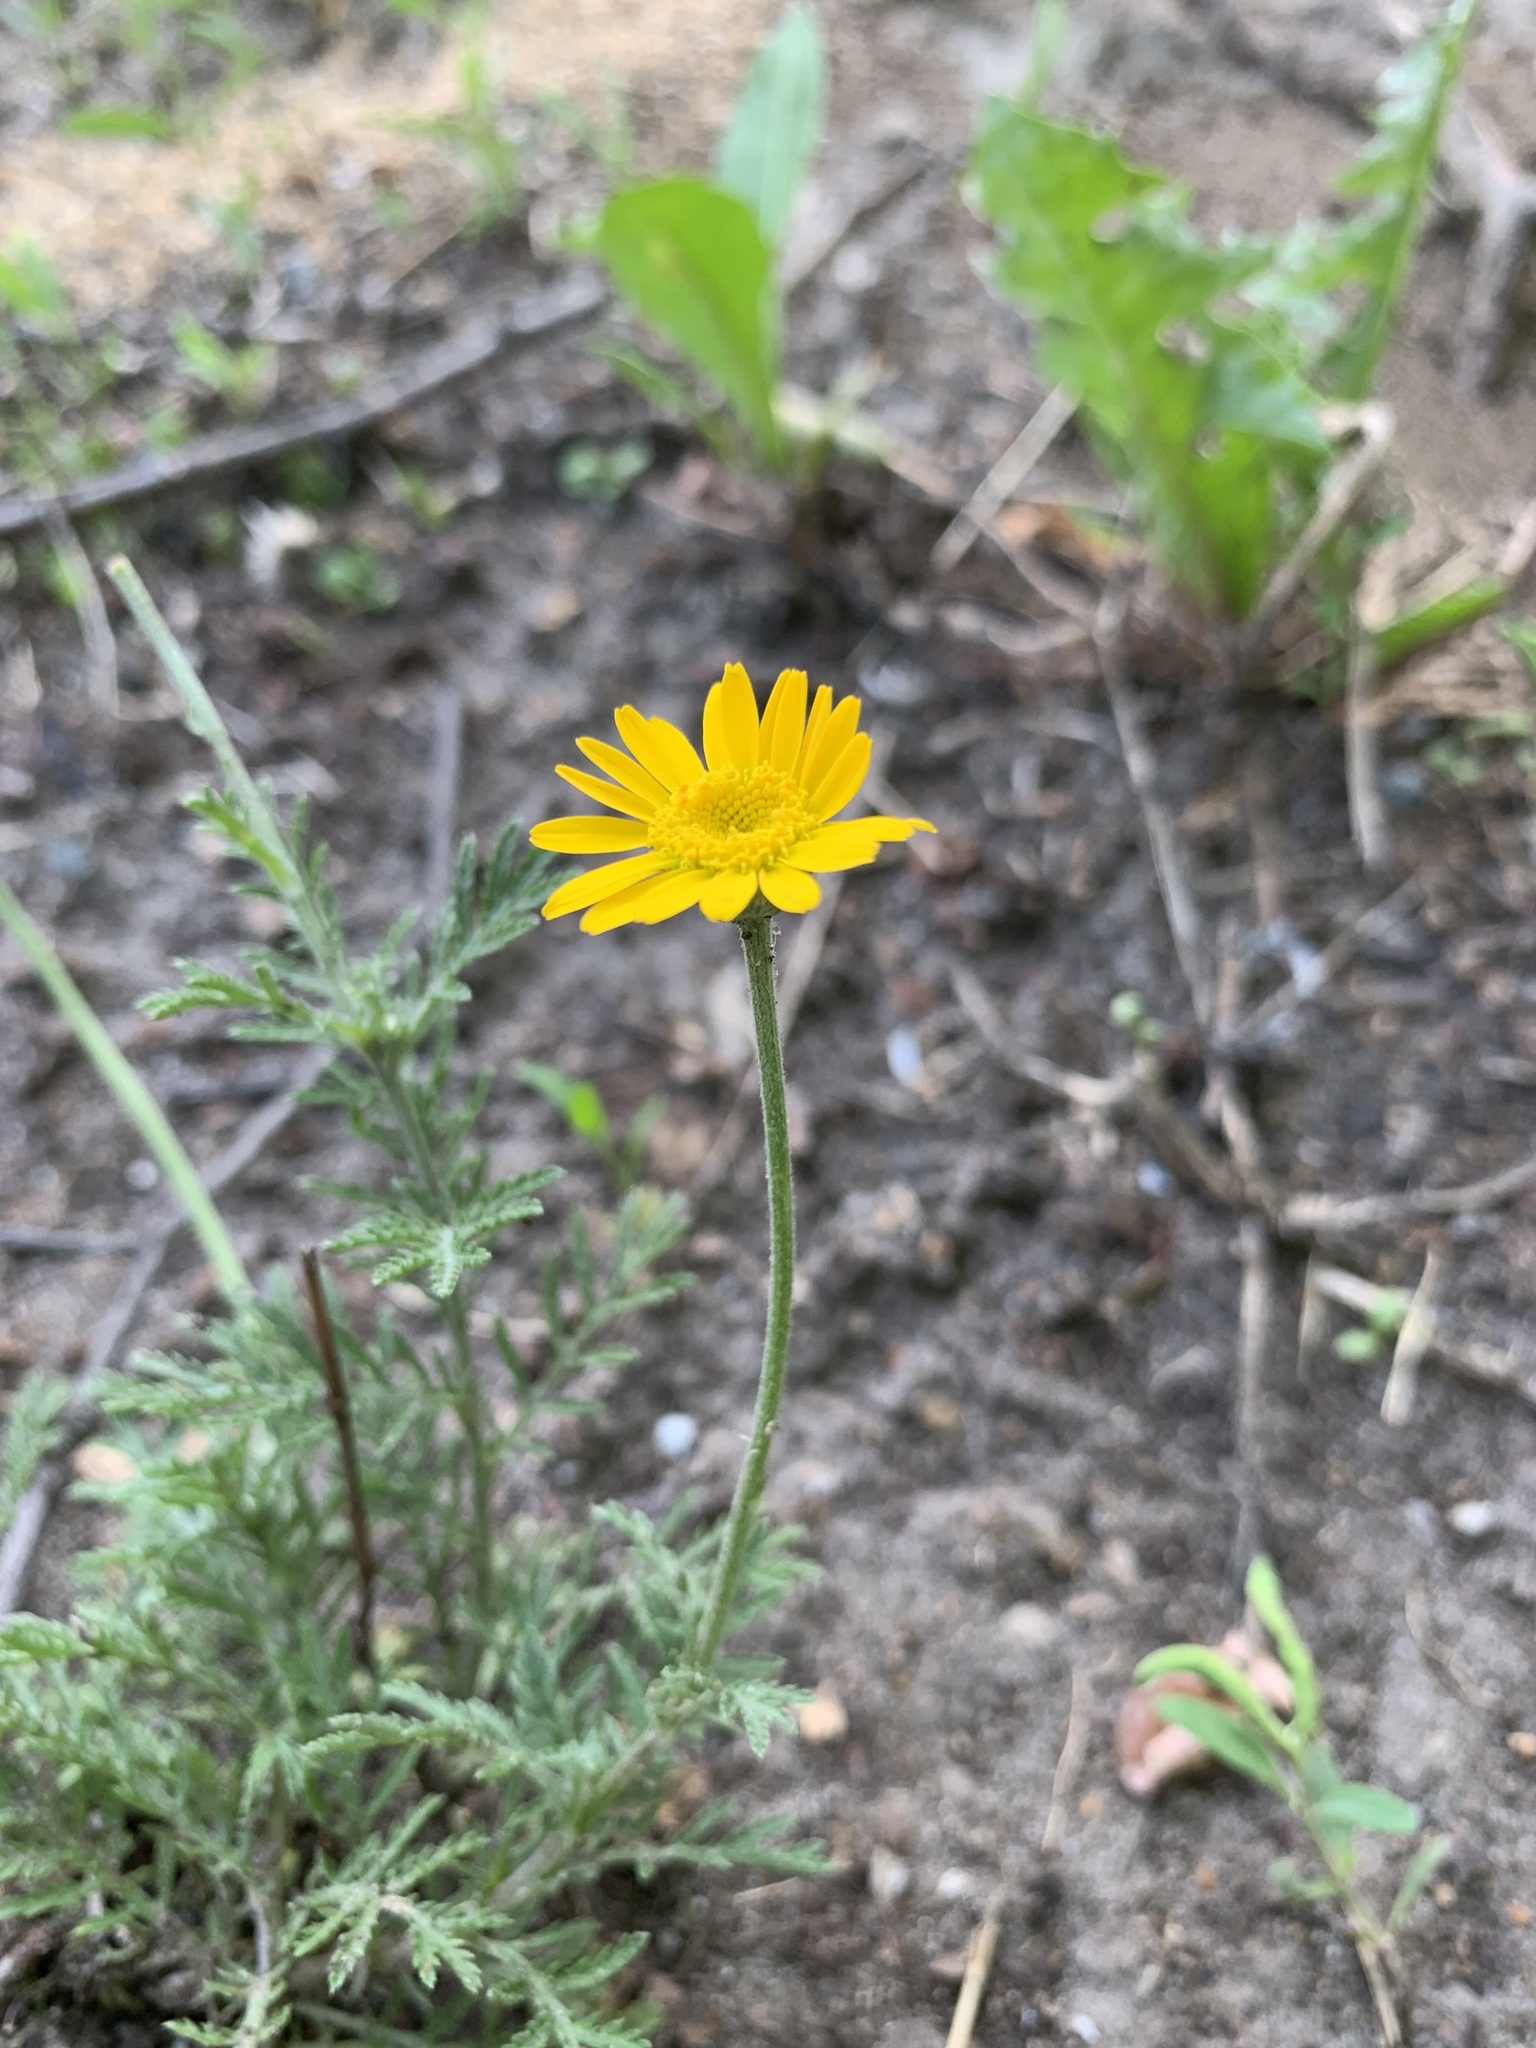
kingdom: Plantae
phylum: Tracheophyta
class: Magnoliopsida
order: Asterales
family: Asteraceae
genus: Cota
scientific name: Cota tinctoria
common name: Golden chamomile
